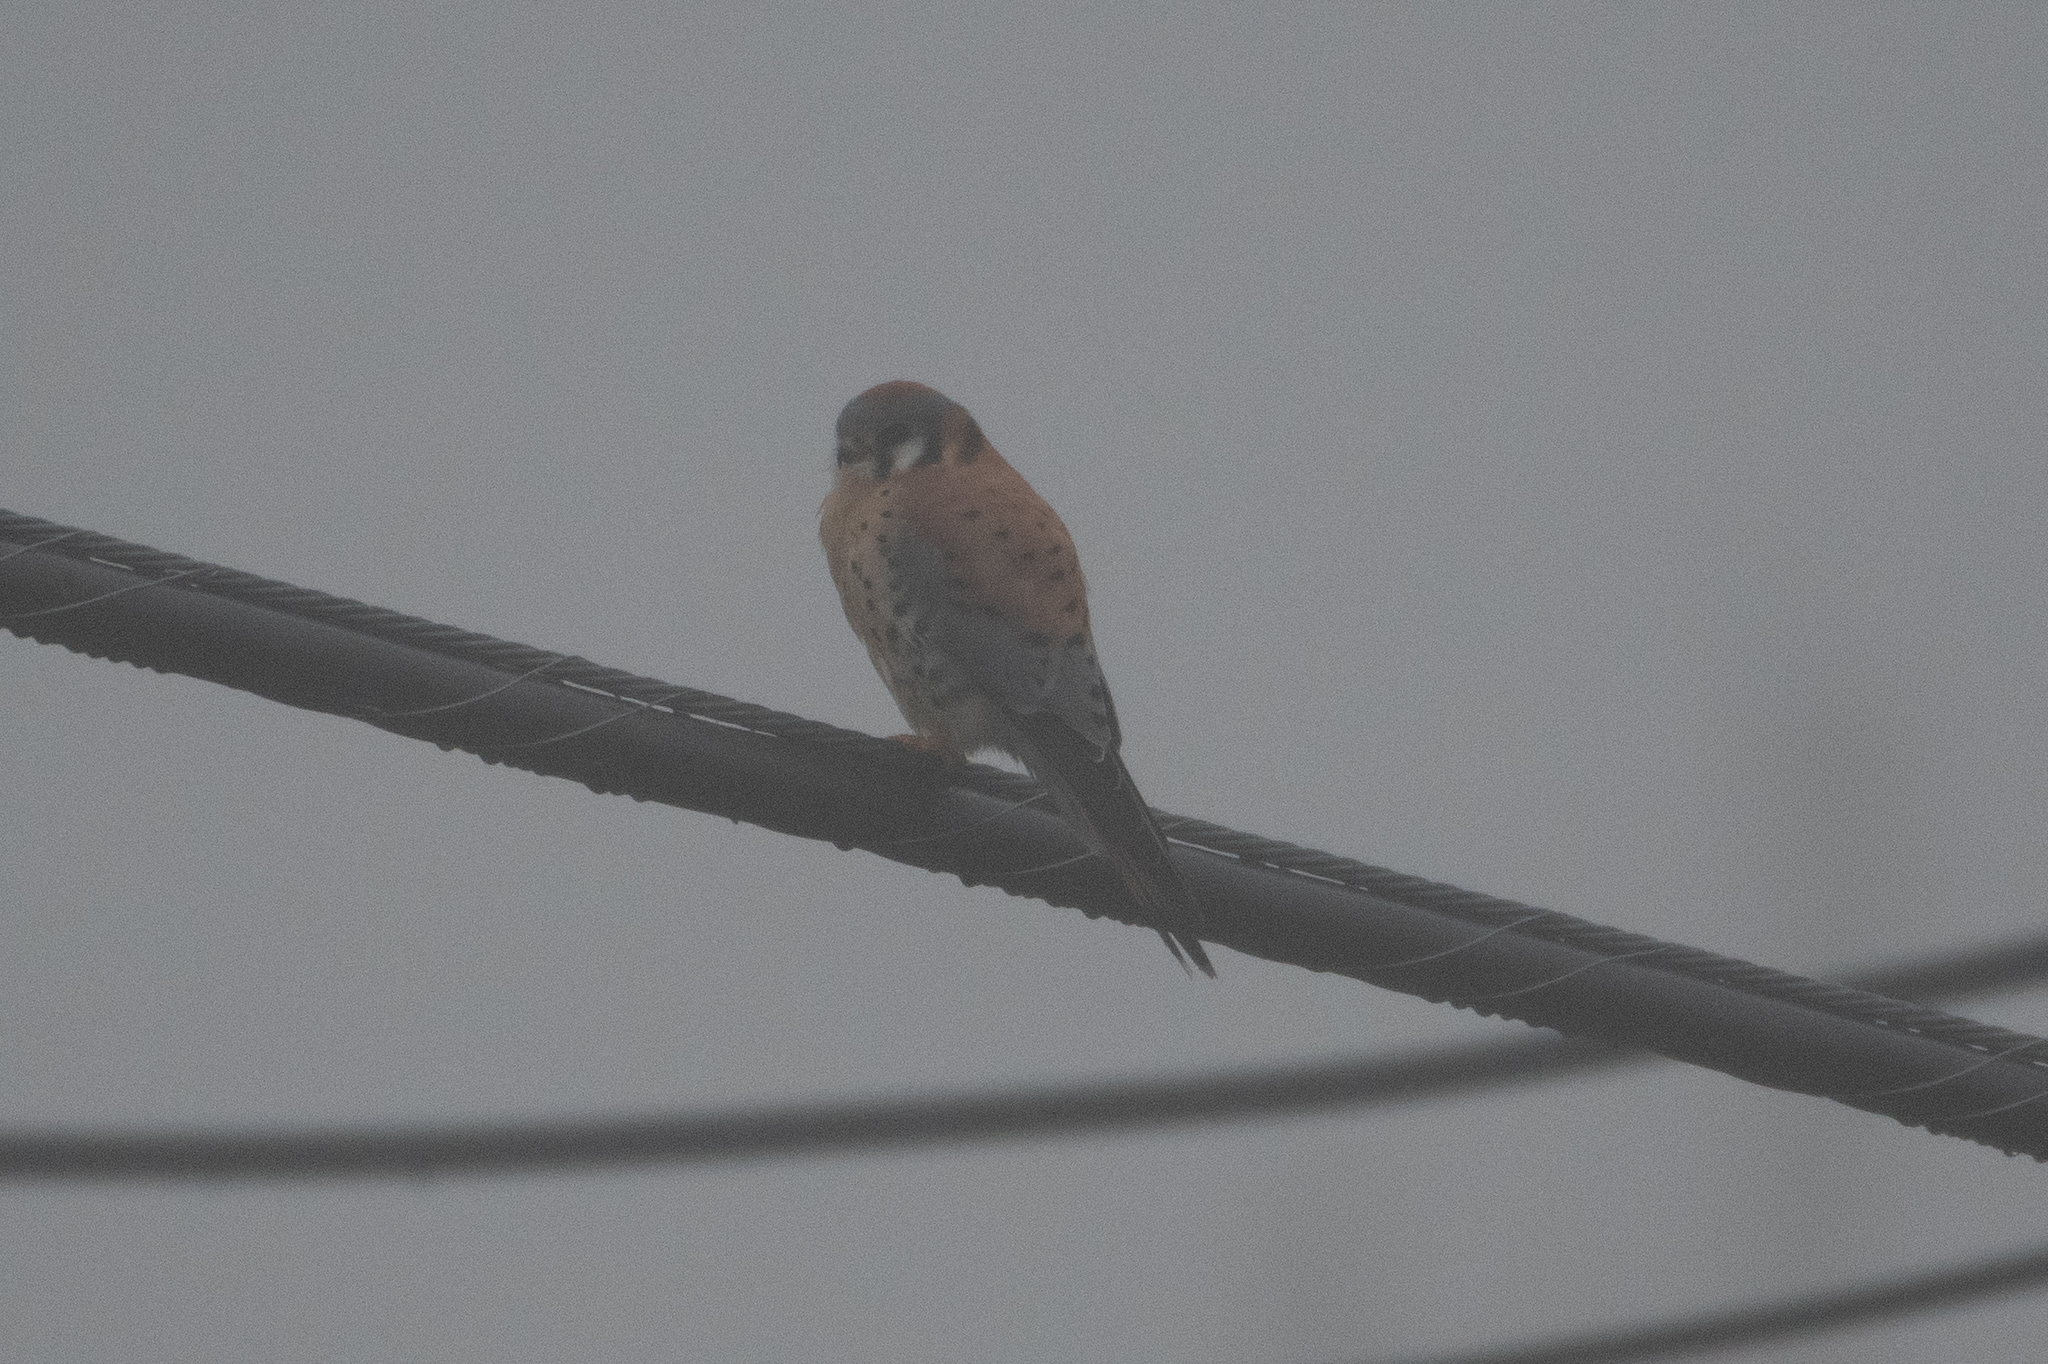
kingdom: Animalia
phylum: Chordata
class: Aves
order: Falconiformes
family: Falconidae
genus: Falco
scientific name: Falco sparverius
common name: American kestrel
